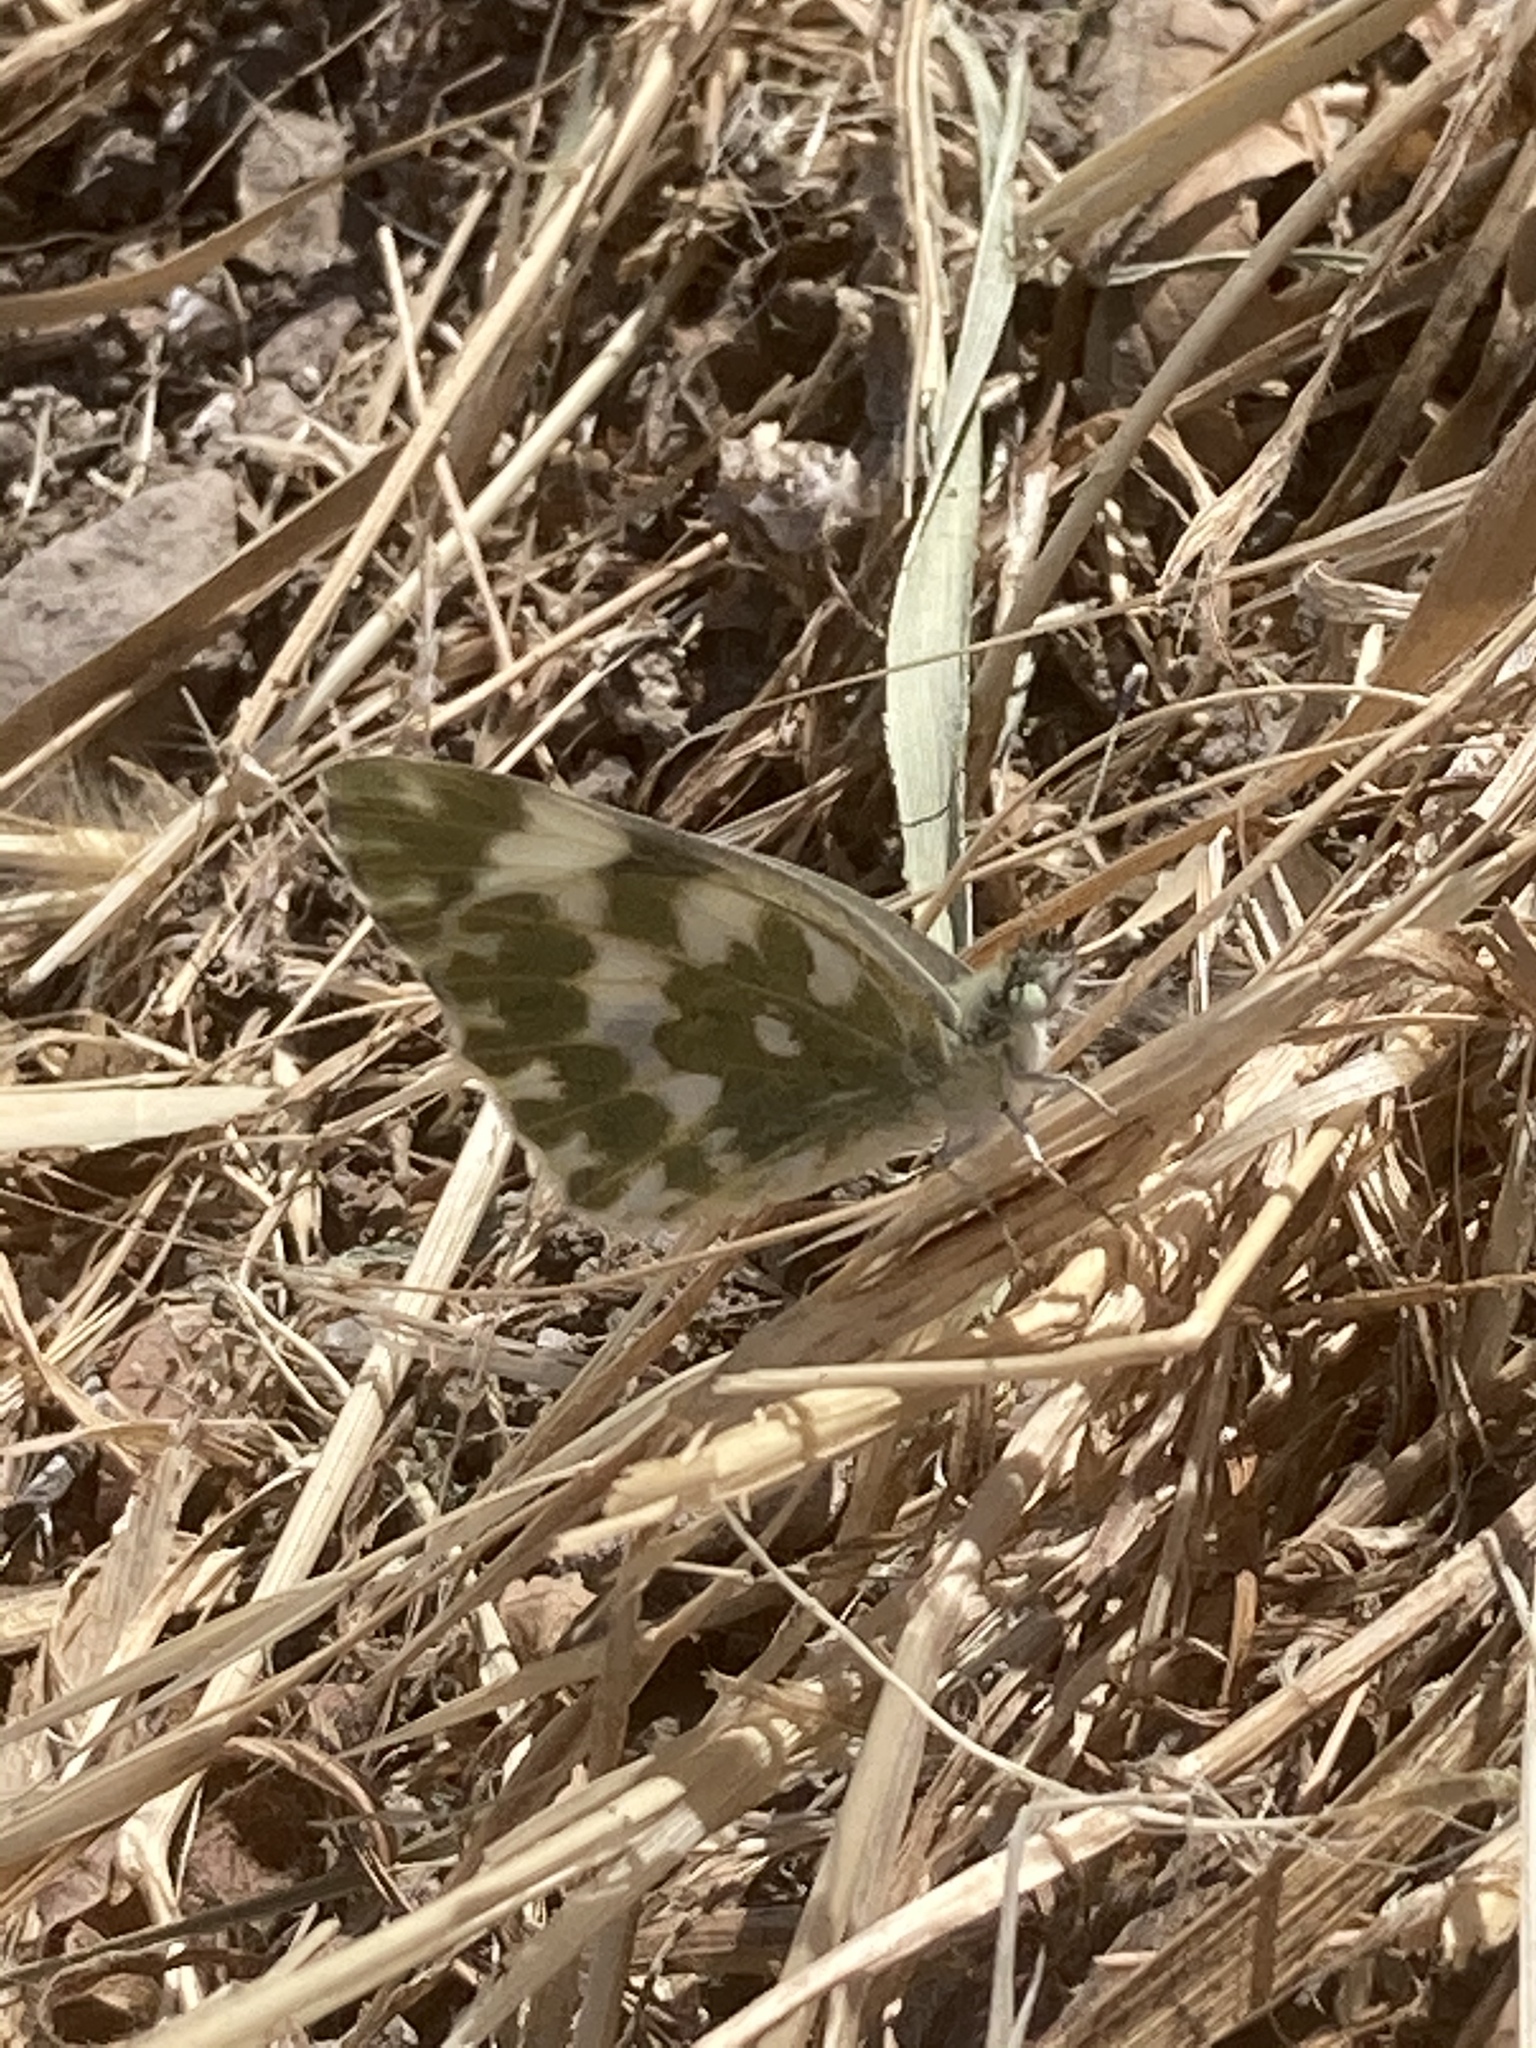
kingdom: Animalia
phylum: Arthropoda
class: Insecta
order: Lepidoptera
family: Pieridae
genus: Pontia
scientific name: Pontia edusa
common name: Eastern bath white
